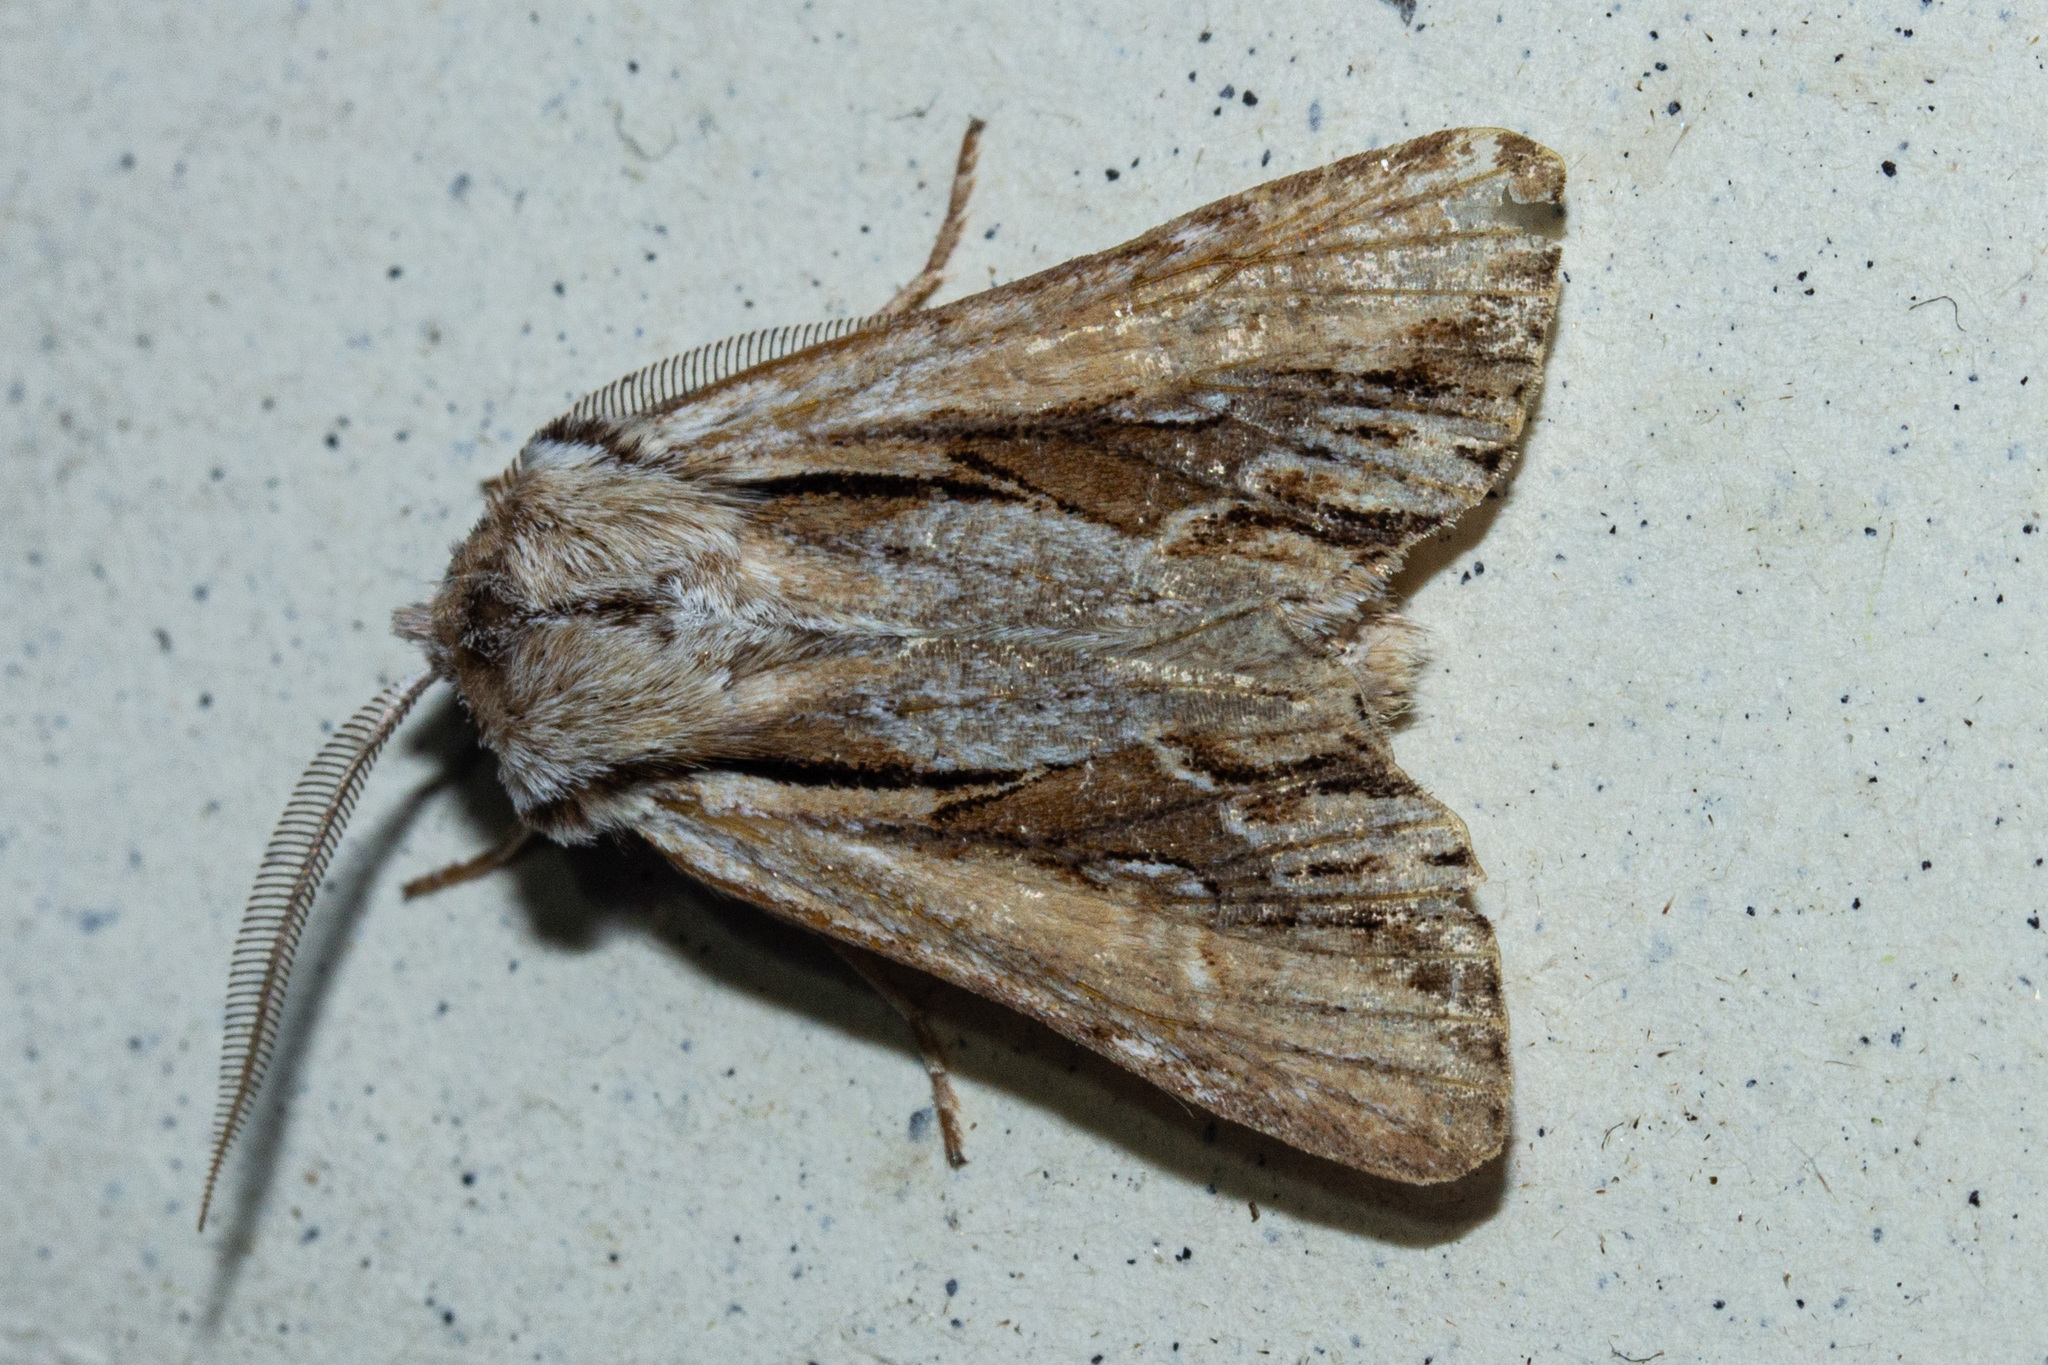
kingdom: Animalia
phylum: Arthropoda
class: Insecta
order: Lepidoptera
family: Noctuidae
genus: Ichneutica
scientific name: Ichneutica
